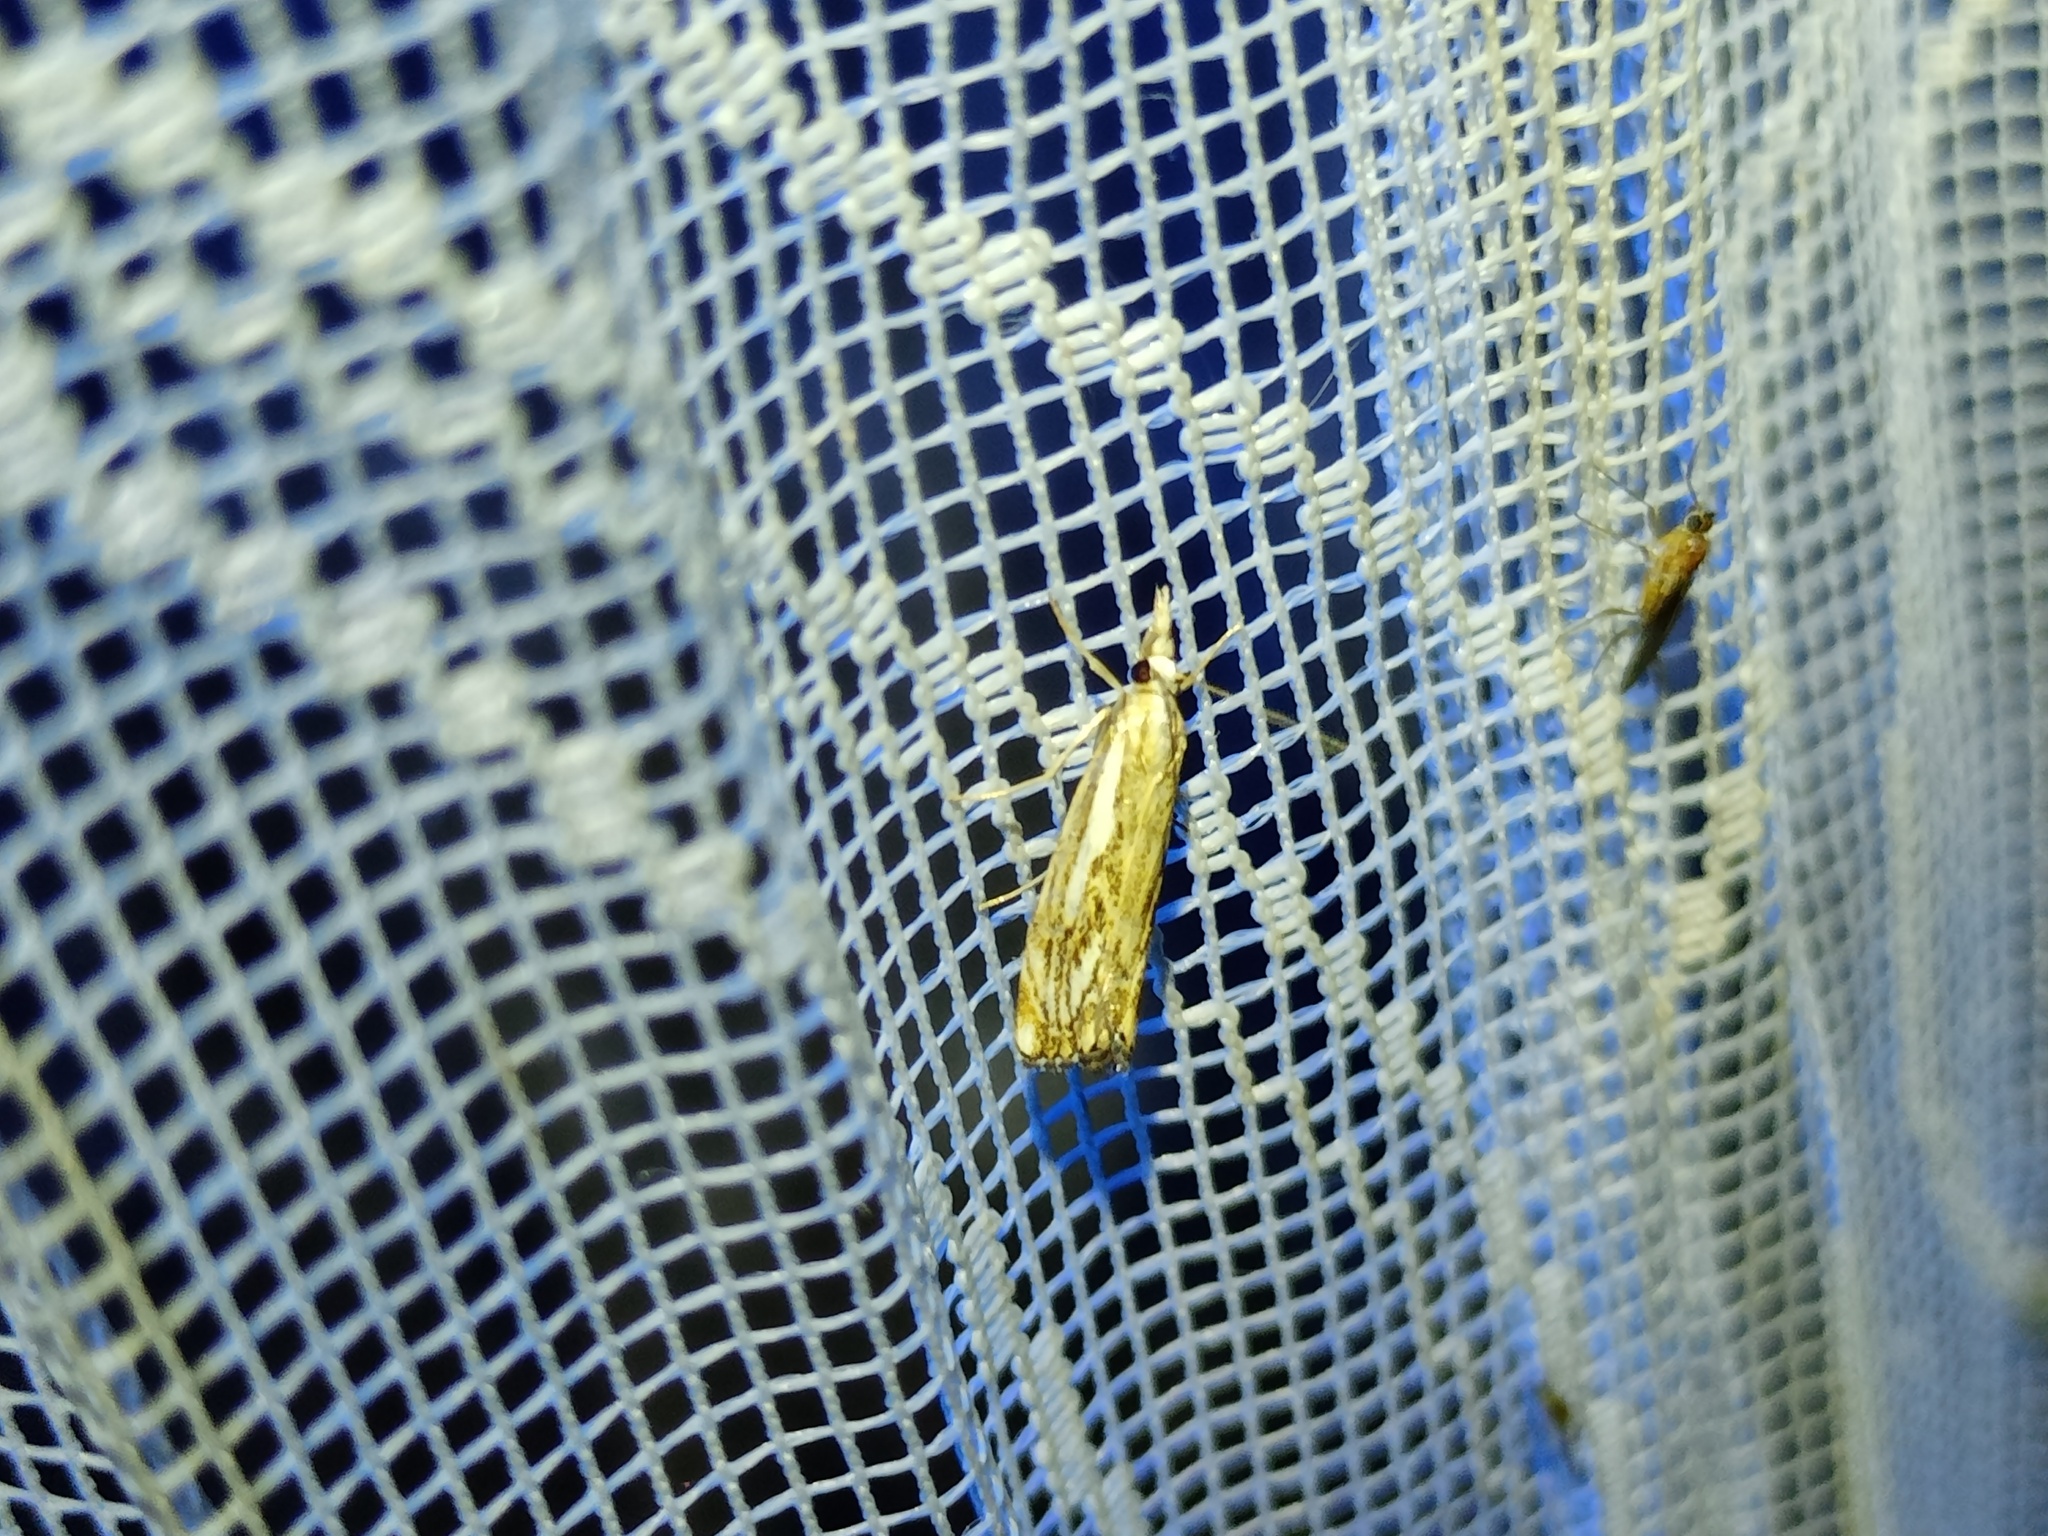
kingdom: Animalia
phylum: Arthropoda
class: Insecta
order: Lepidoptera
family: Crambidae
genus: Catoptria
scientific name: Catoptria falsella
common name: Chequered grass-veneer
